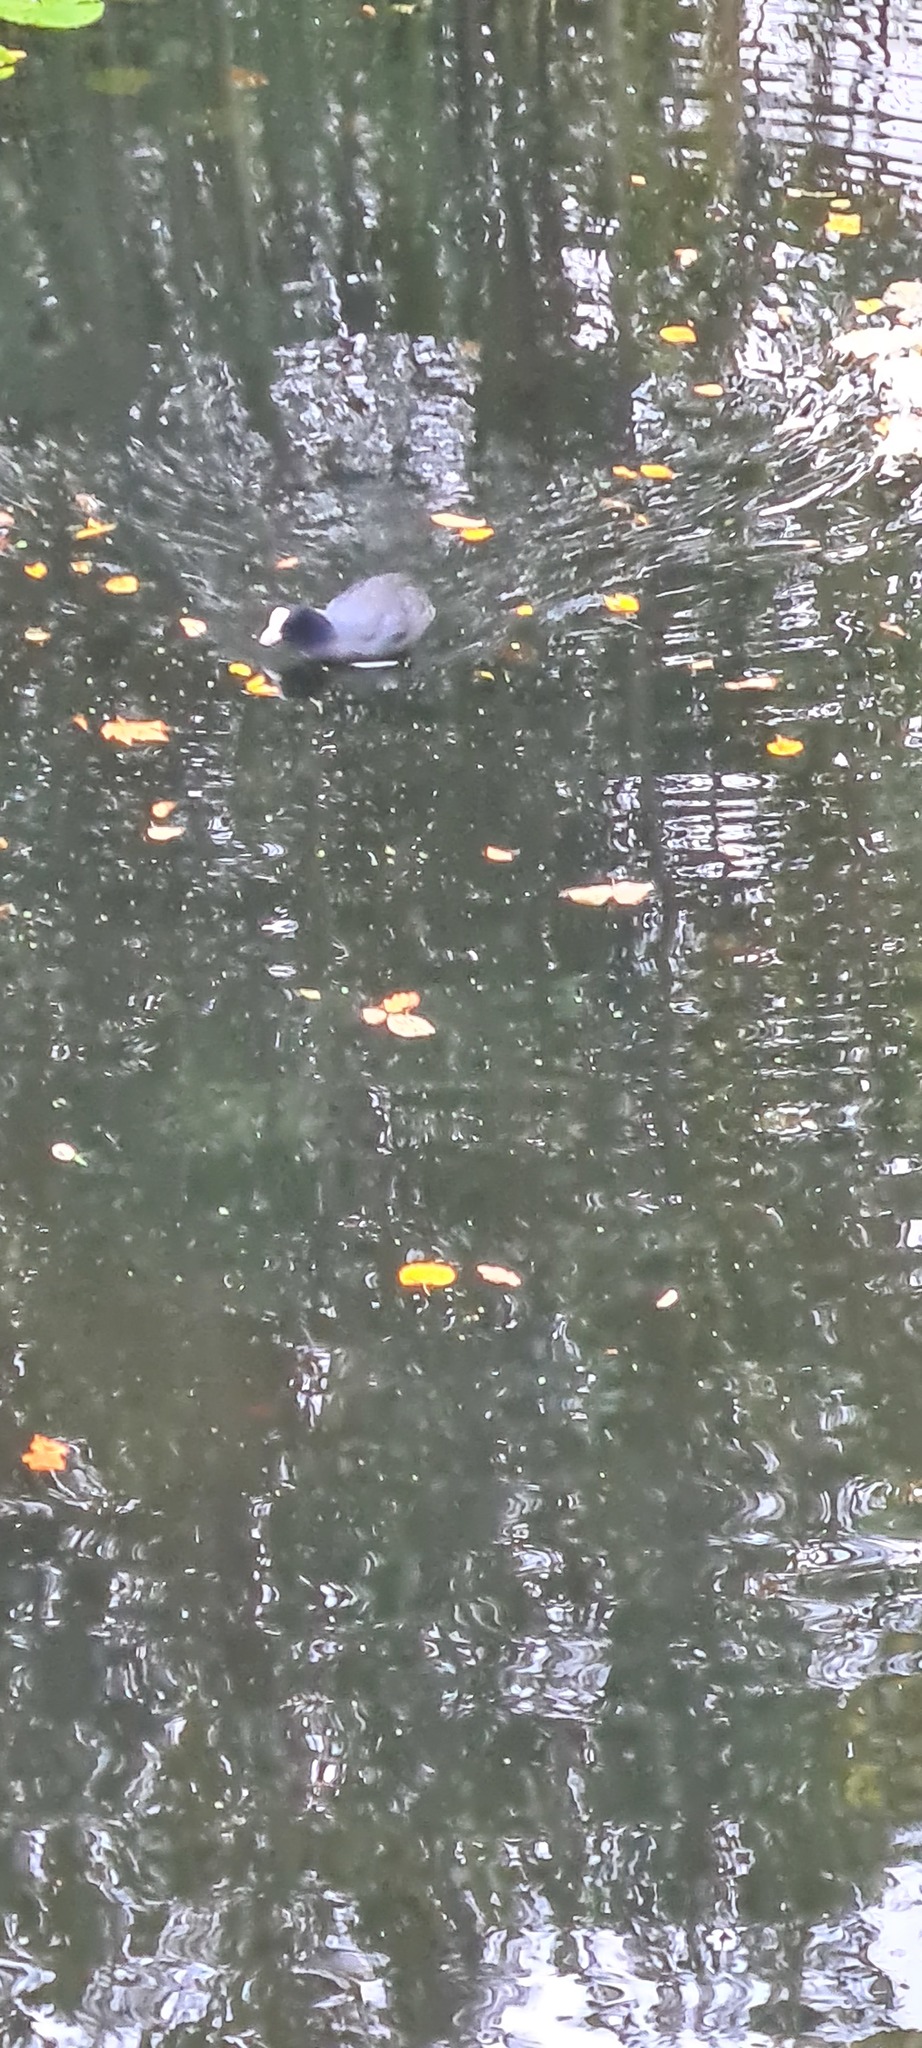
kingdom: Animalia
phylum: Chordata
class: Aves
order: Gruiformes
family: Rallidae
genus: Fulica
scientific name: Fulica atra
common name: Eurasian coot
